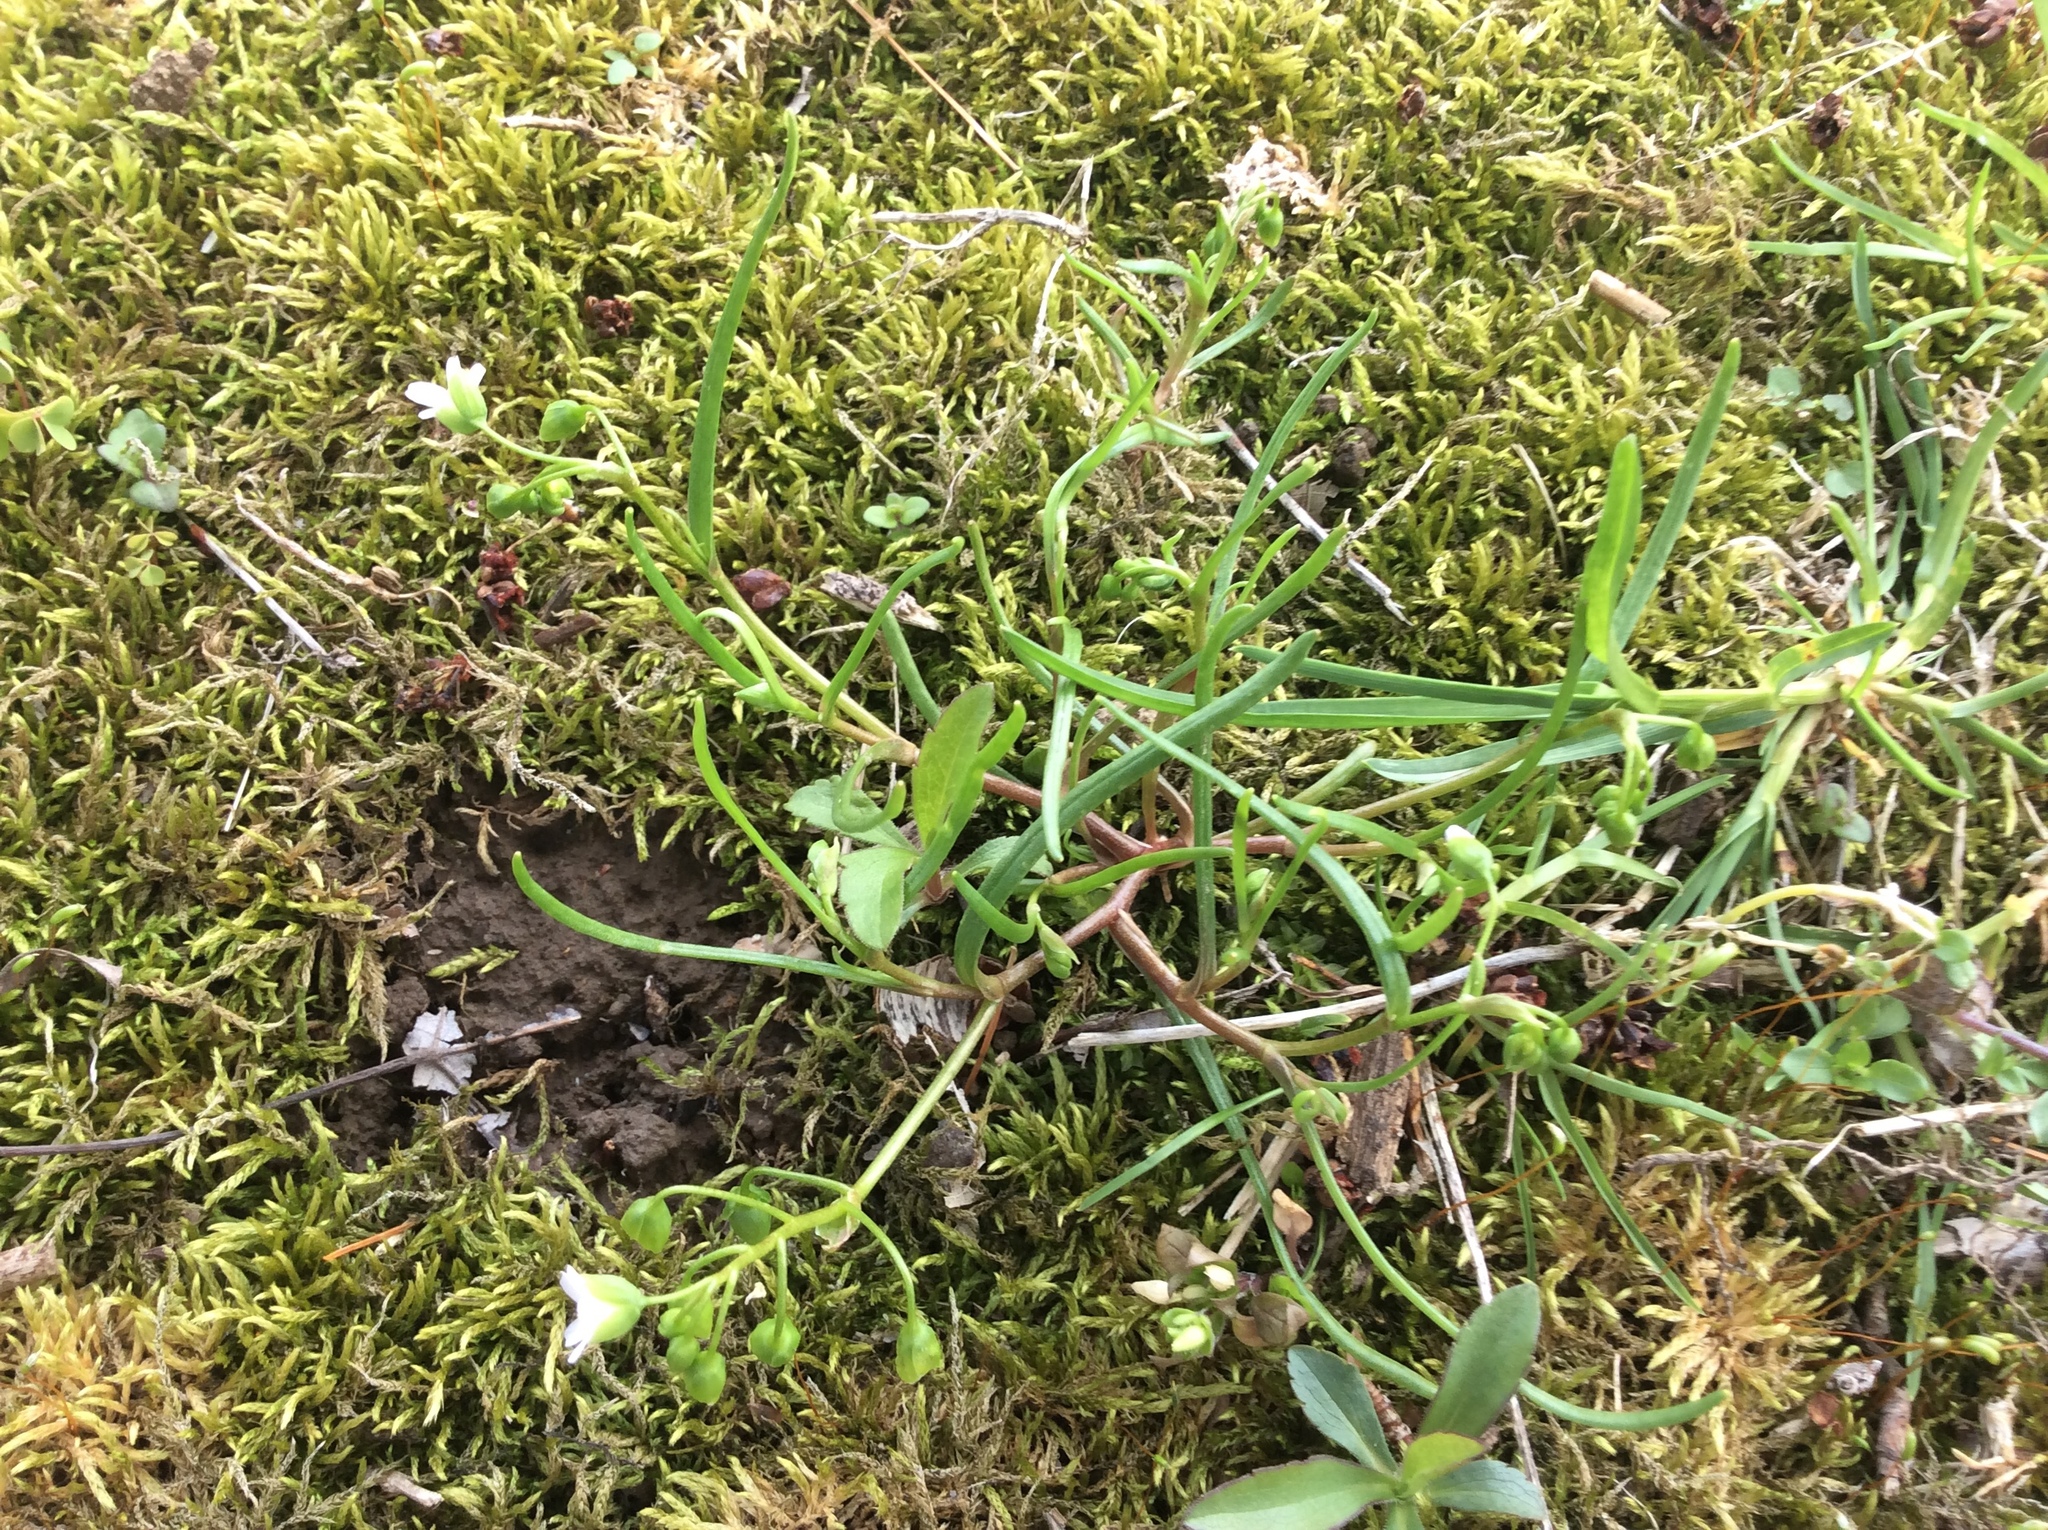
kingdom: Plantae
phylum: Tracheophyta
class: Magnoliopsida
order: Caryophyllales
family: Montiaceae
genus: Claytonia
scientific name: Claytonia virginica
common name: Virginia springbeauty
